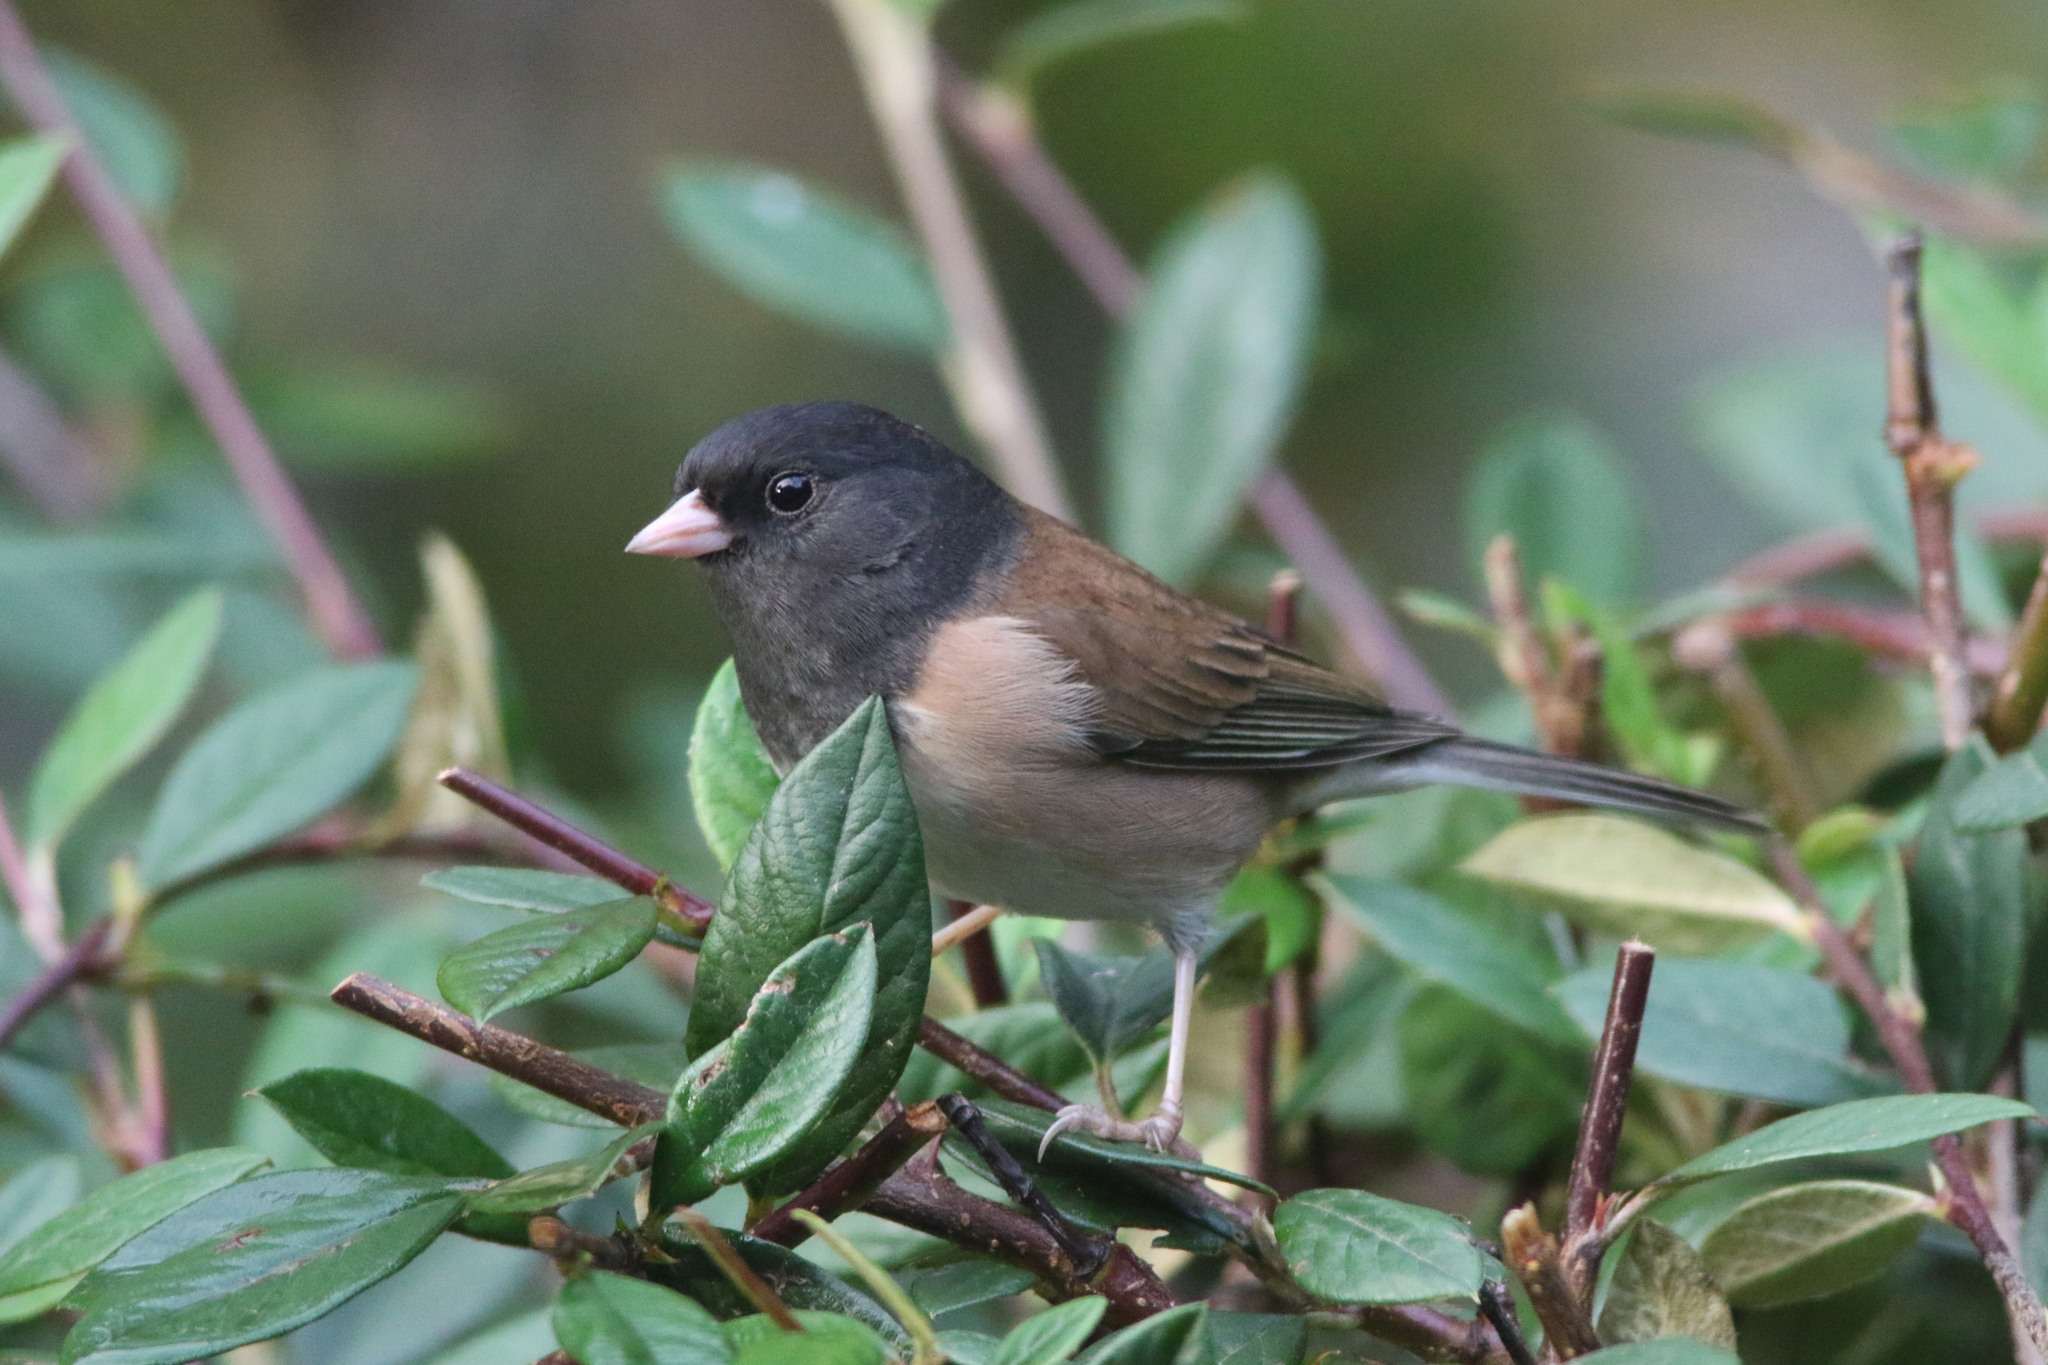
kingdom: Animalia
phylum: Chordata
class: Aves
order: Passeriformes
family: Passerellidae
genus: Junco
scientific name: Junco hyemalis
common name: Dark-eyed junco
